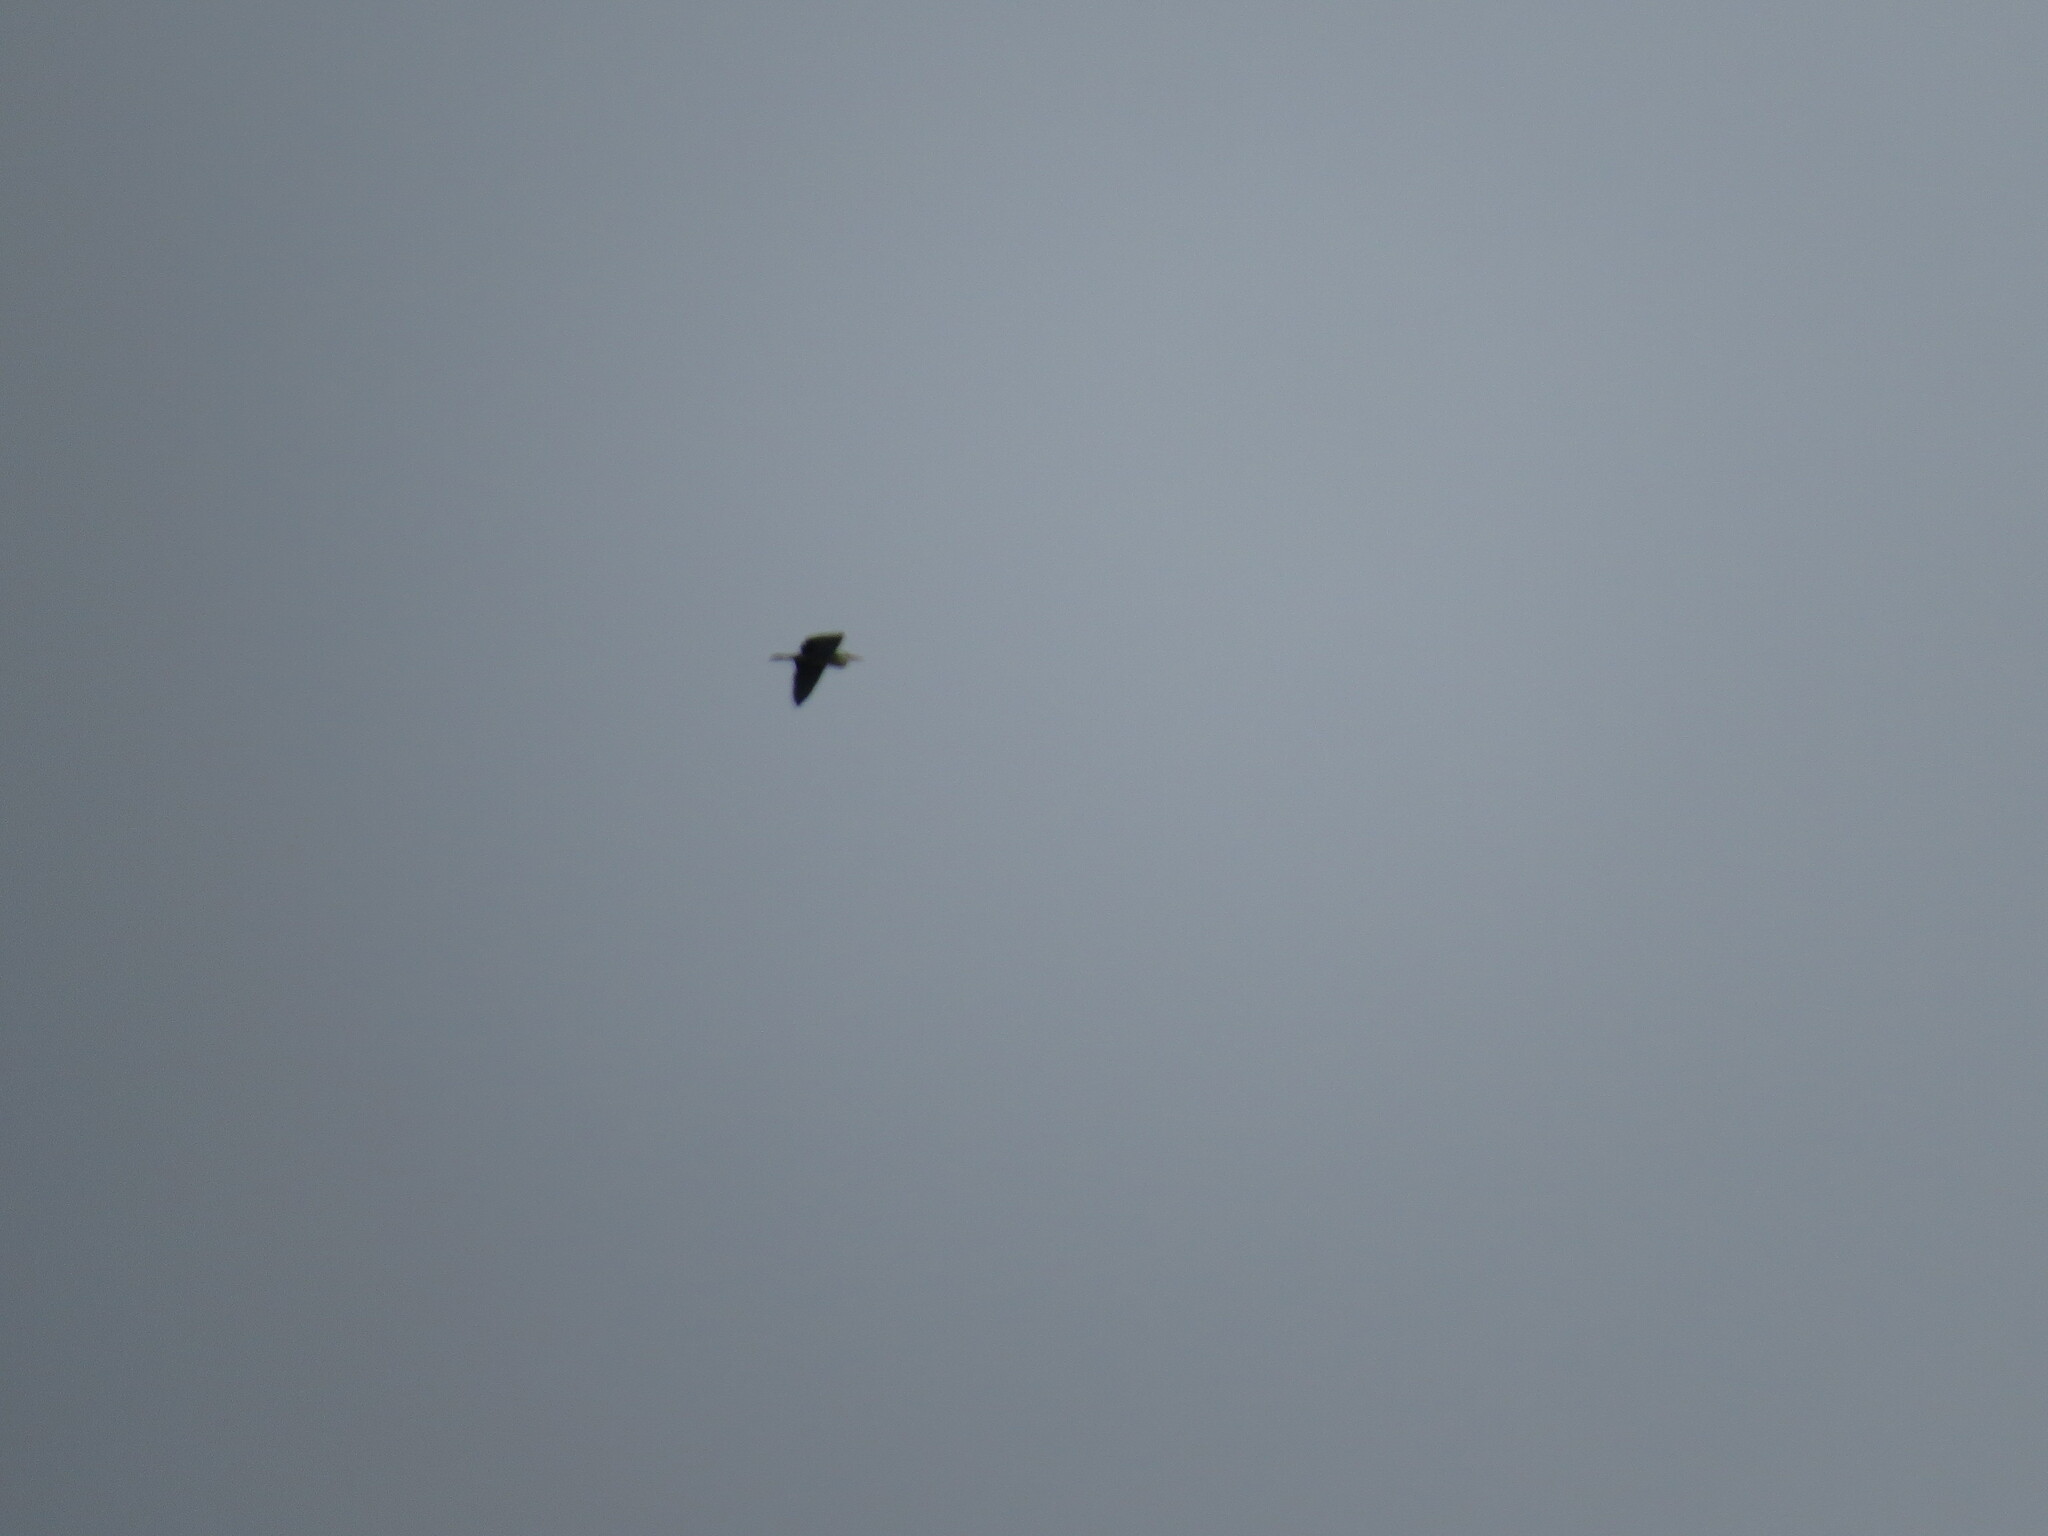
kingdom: Animalia
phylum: Chordata
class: Aves
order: Pelecaniformes
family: Ardeidae
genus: Ardea
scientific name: Ardea cinerea
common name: Grey heron
